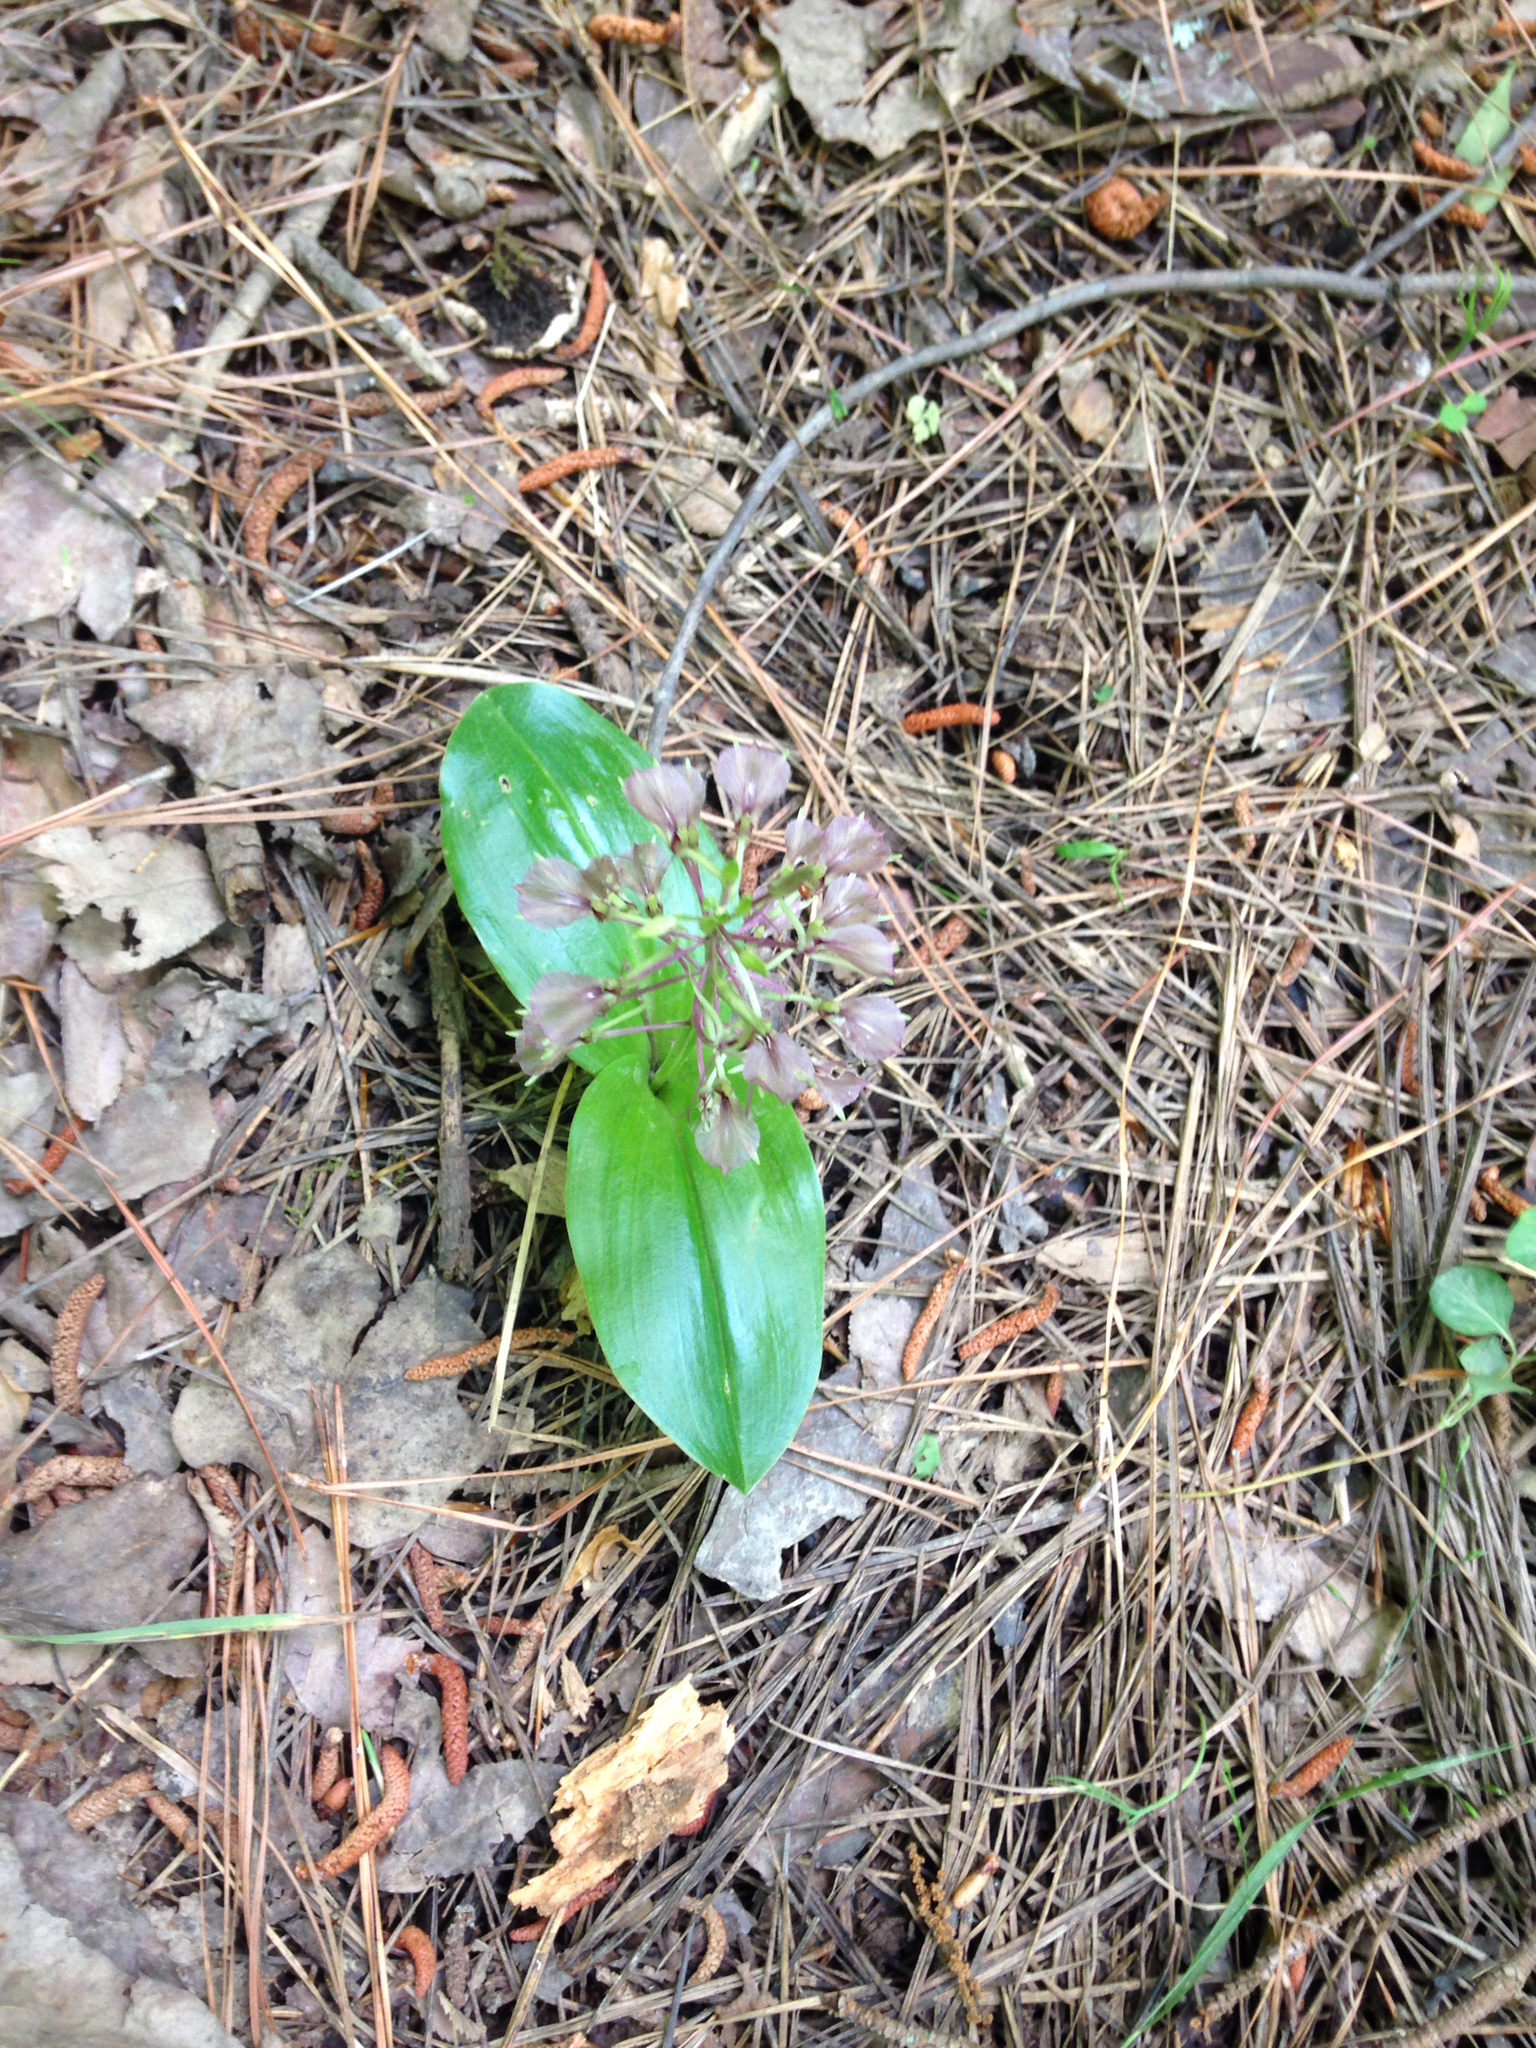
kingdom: Plantae
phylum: Tracheophyta
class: Liliopsida
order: Asparagales
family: Orchidaceae
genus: Liparis
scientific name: Liparis liliifolia
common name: Brown wide-lip orchid
